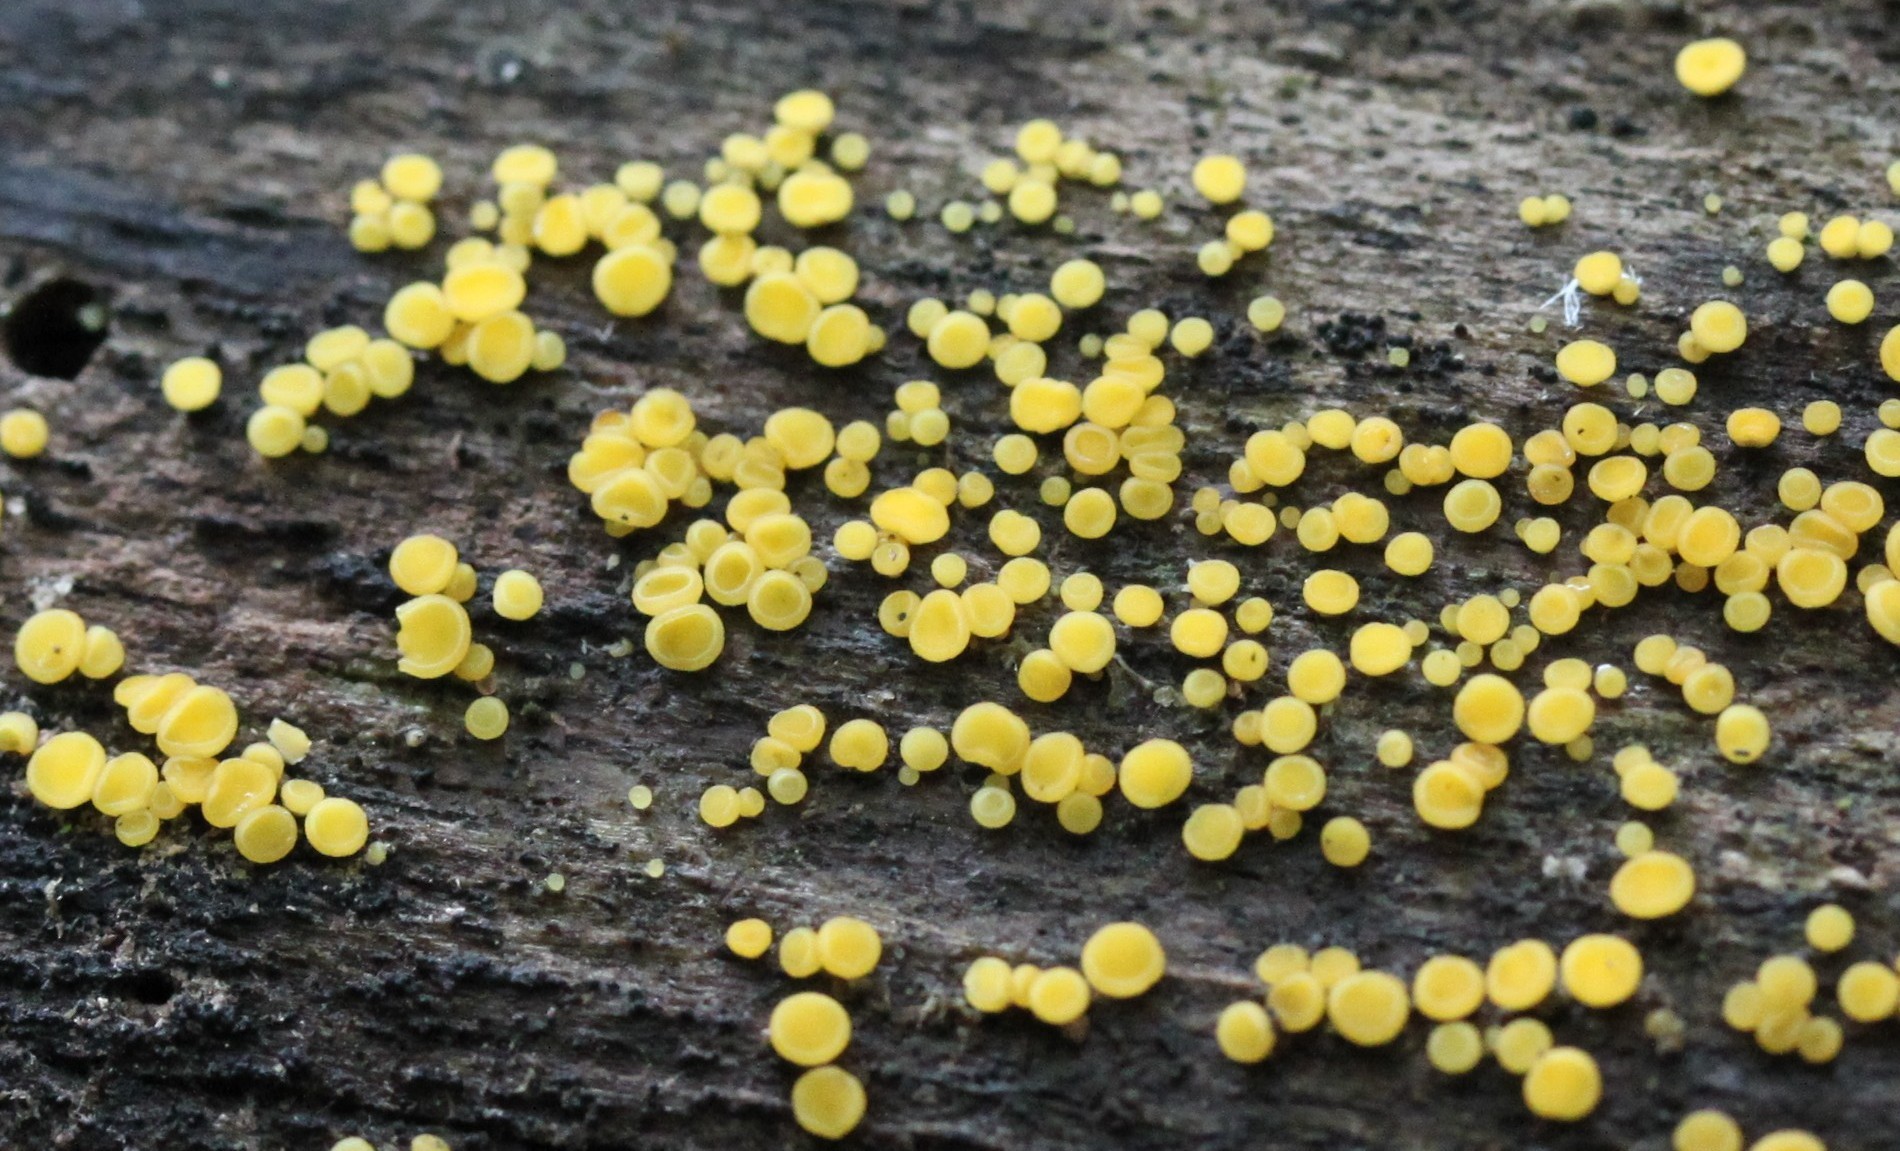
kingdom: Fungi
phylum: Ascomycota
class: Leotiomycetes
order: Helotiales
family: Pezizellaceae
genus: Calycina
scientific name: Calycina citrina
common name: Yellow fairy cups
